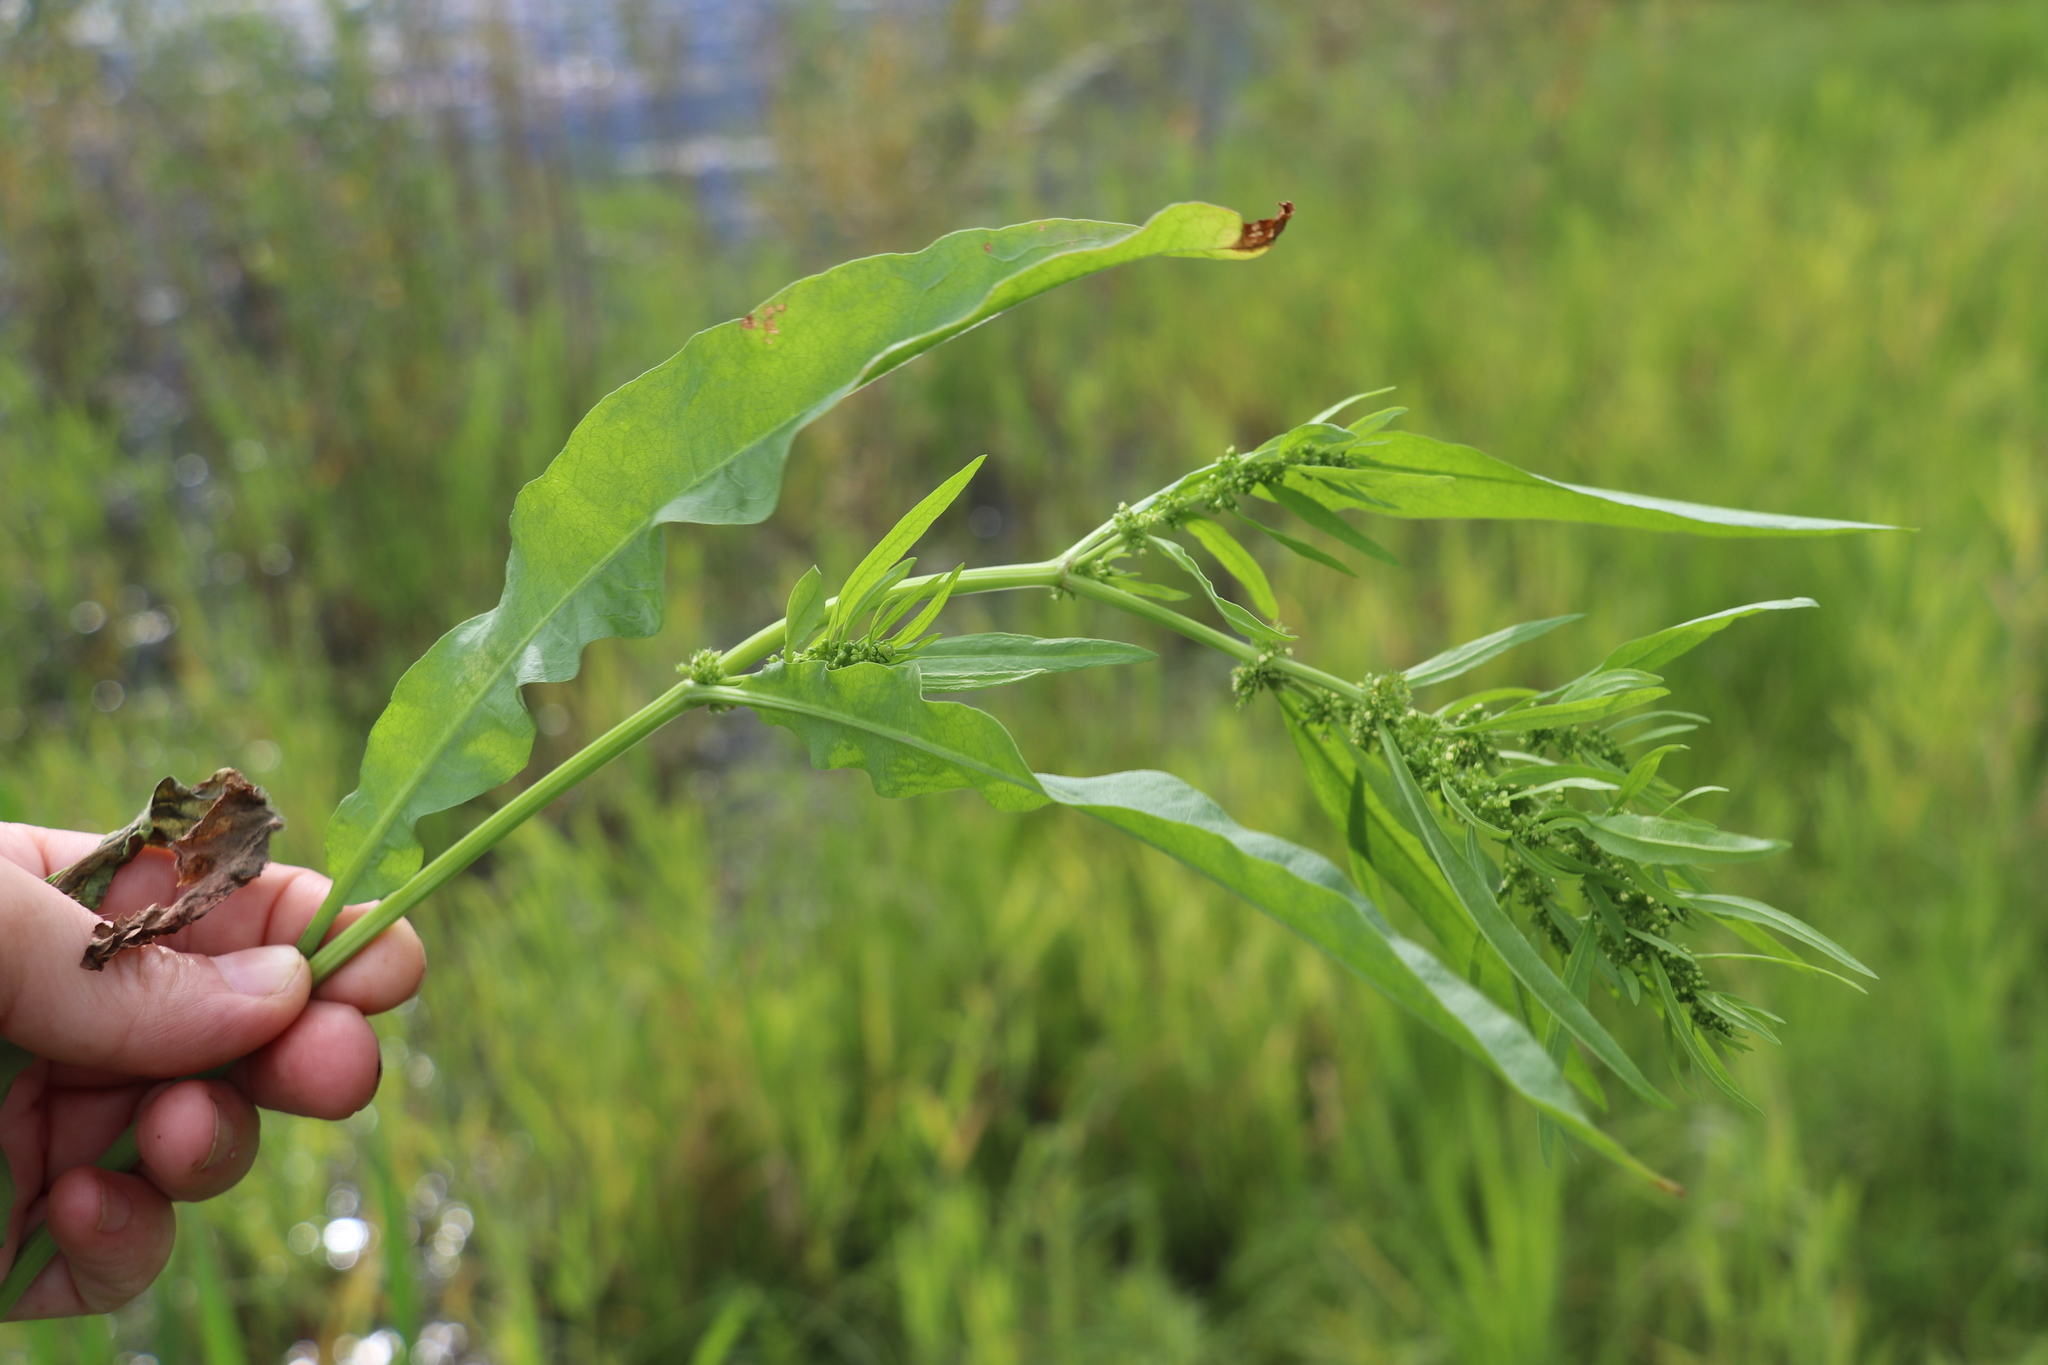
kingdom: Plantae
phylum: Tracheophyta
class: Magnoliopsida
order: Caryophyllales
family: Polygonaceae
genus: Rumex
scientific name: Rumex maritimus
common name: Golden dock
